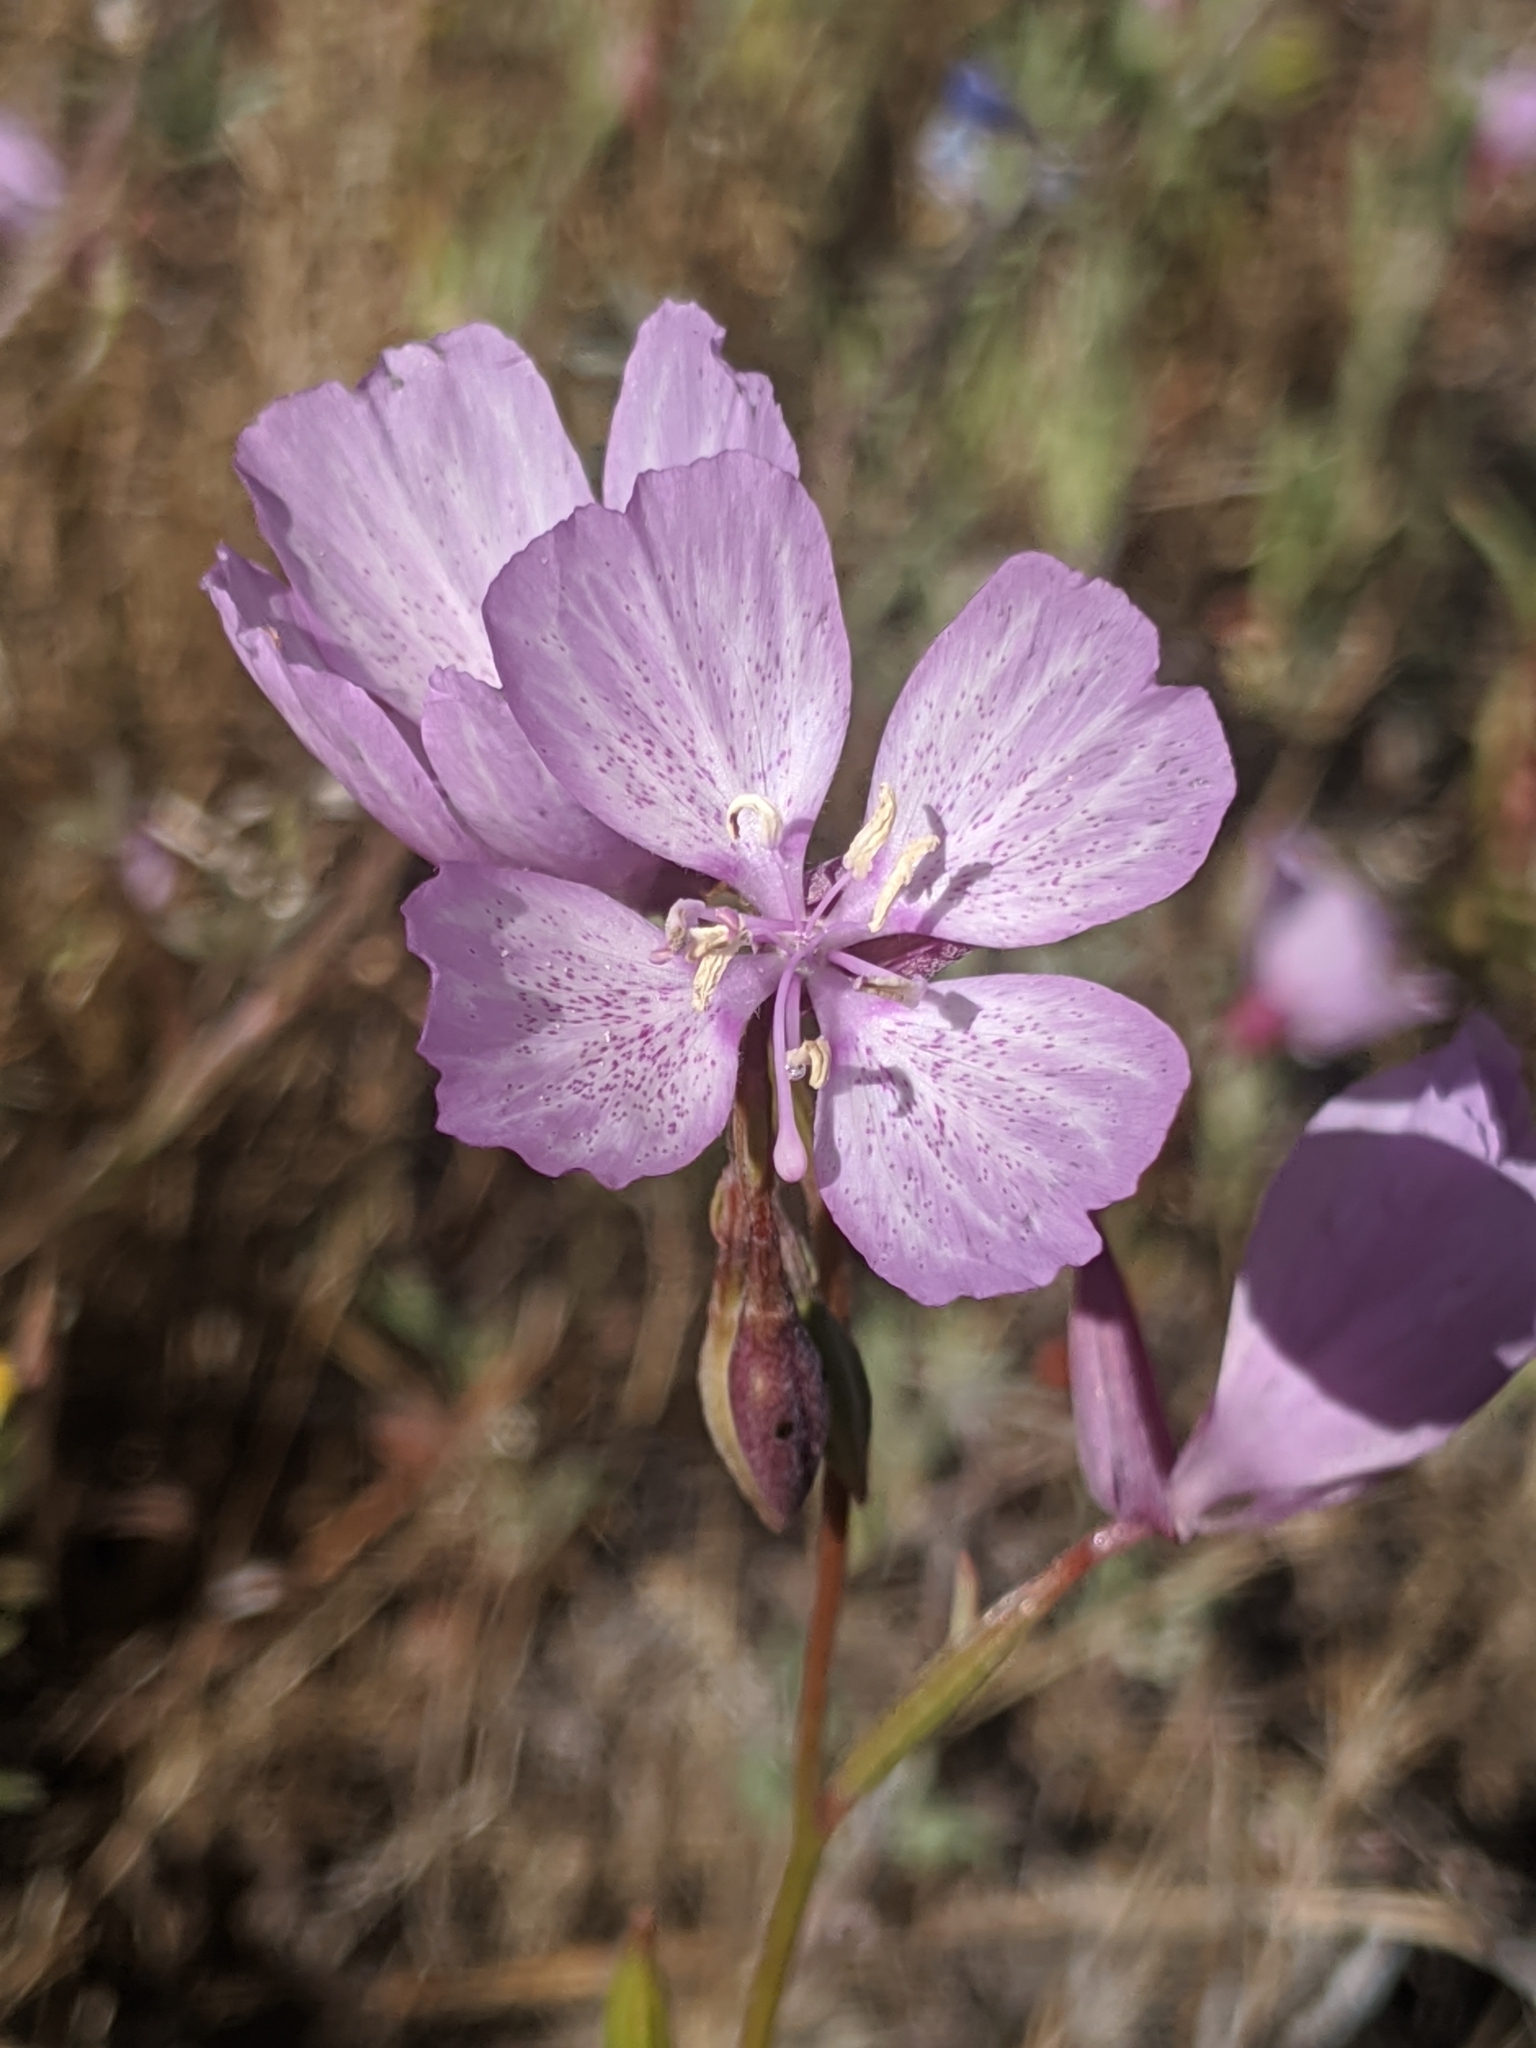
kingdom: Plantae
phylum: Tracheophyta
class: Magnoliopsida
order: Myrtales
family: Onagraceae
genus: Clarkia
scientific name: Clarkia dudleyana
